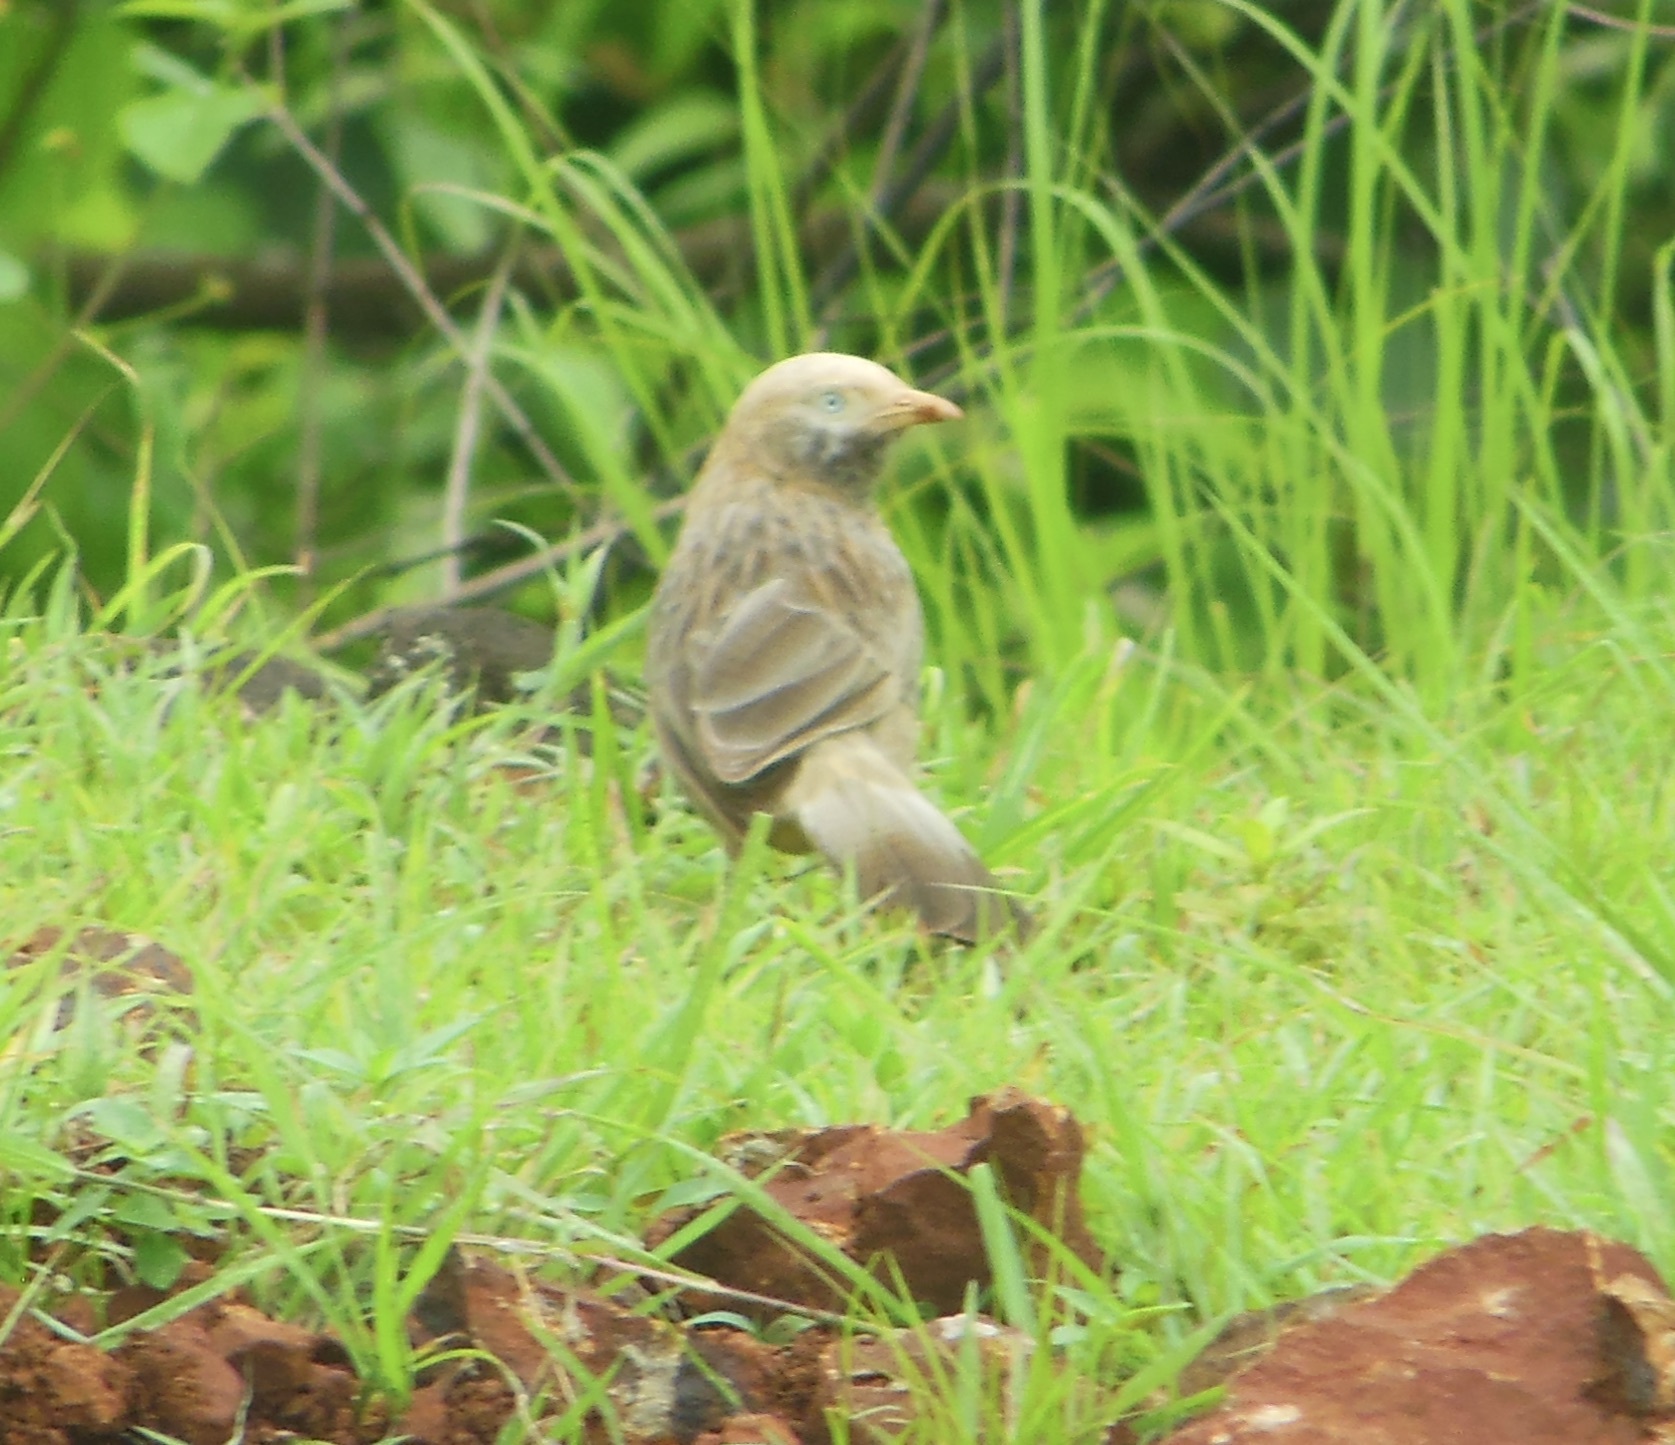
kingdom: Animalia
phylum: Chordata
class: Aves
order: Passeriformes
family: Leiothrichidae
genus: Turdoides
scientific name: Turdoides affinis
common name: Yellow-billed babbler
